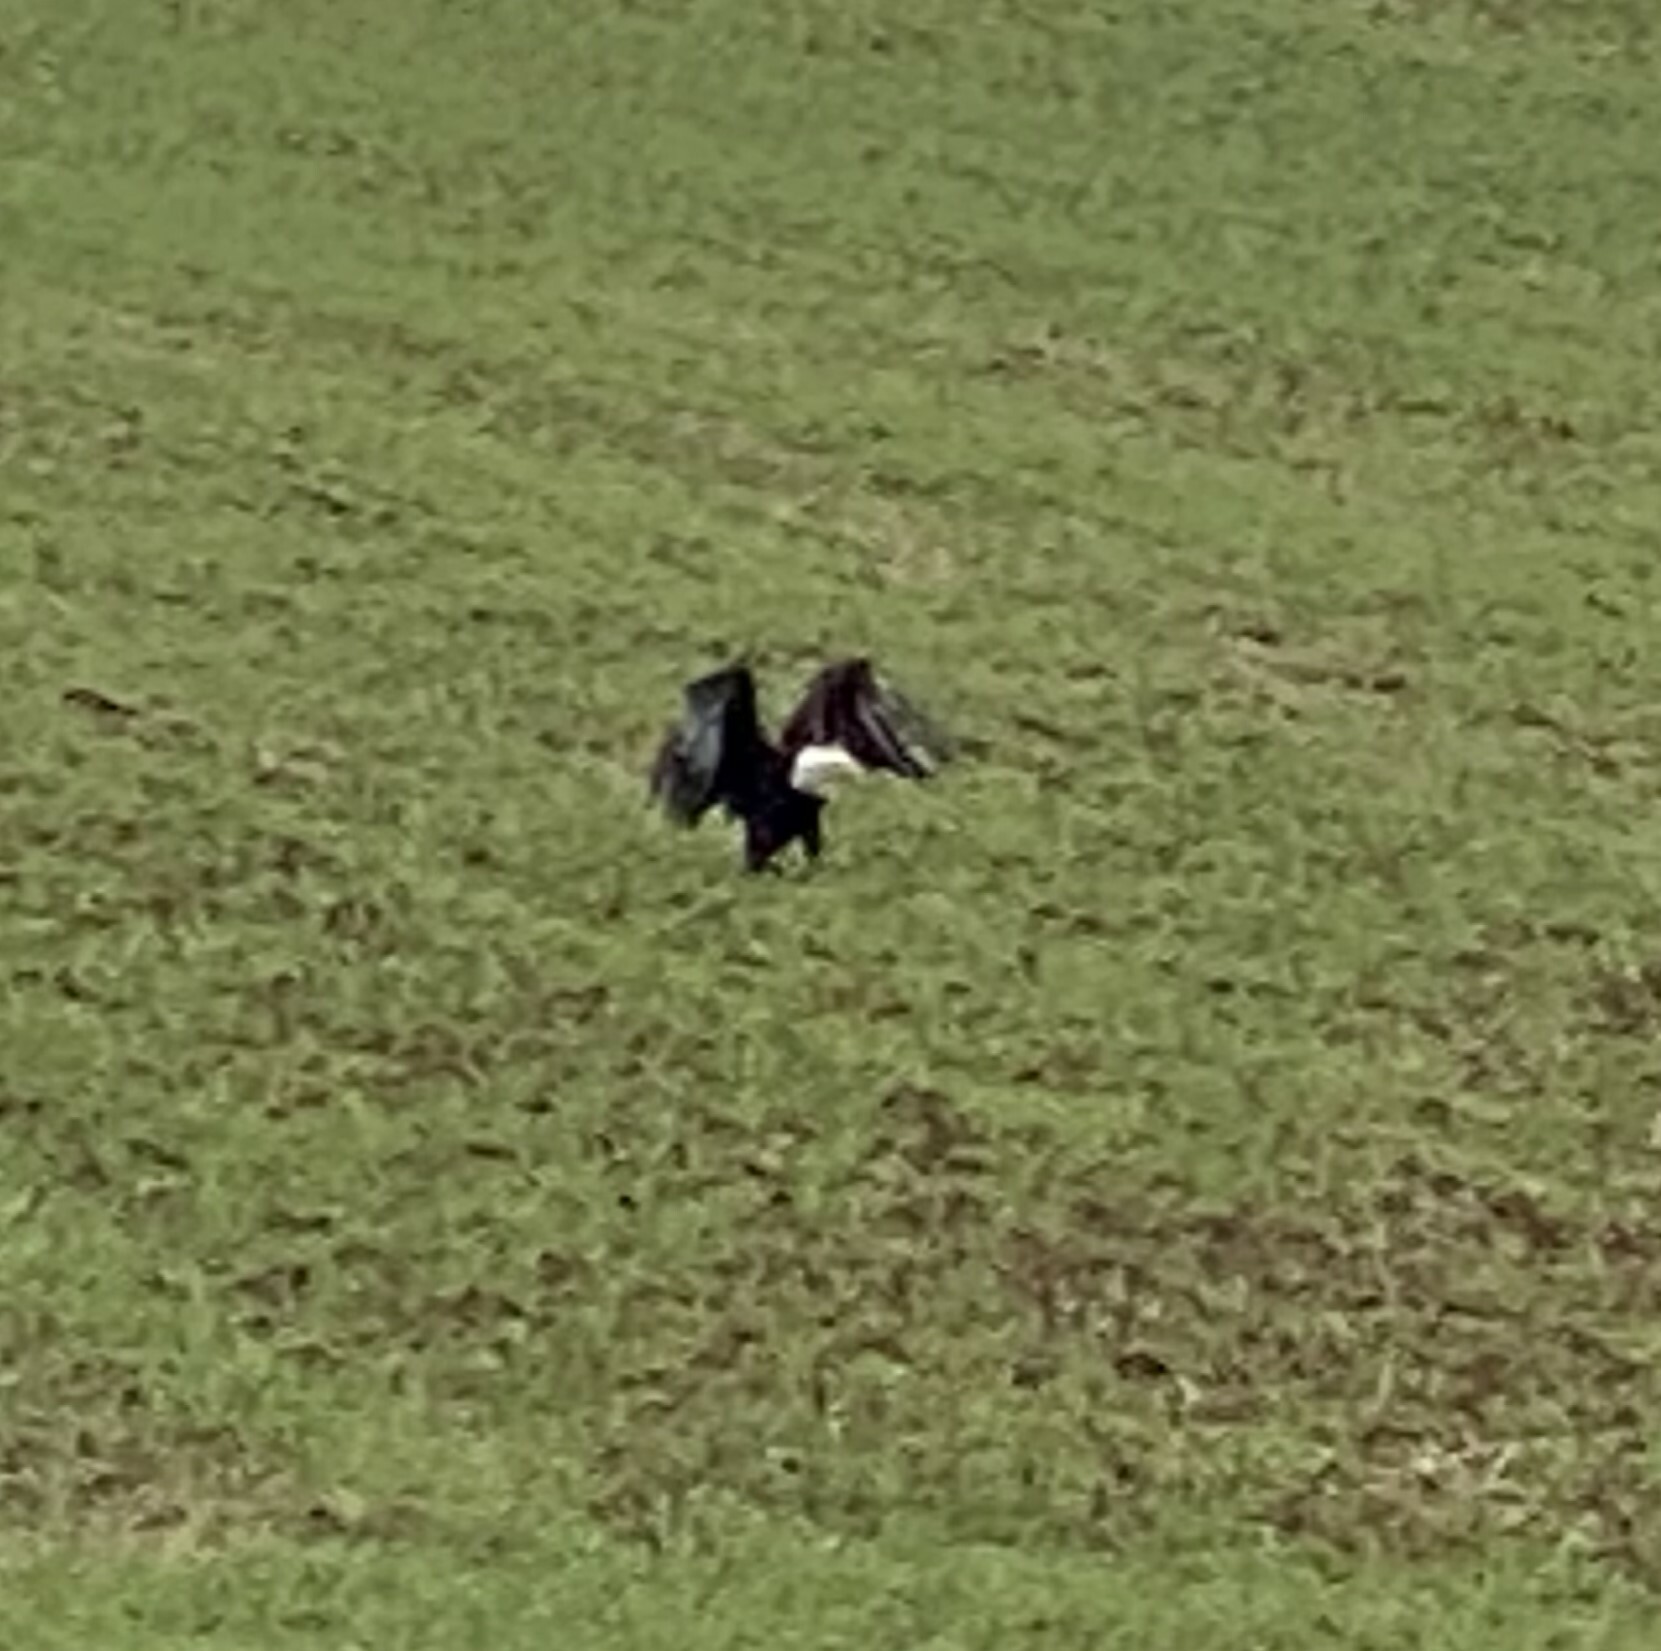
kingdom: Animalia
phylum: Chordata
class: Aves
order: Accipitriformes
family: Accipitridae
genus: Haliaeetus
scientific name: Haliaeetus leucocephalus
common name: Bald eagle
